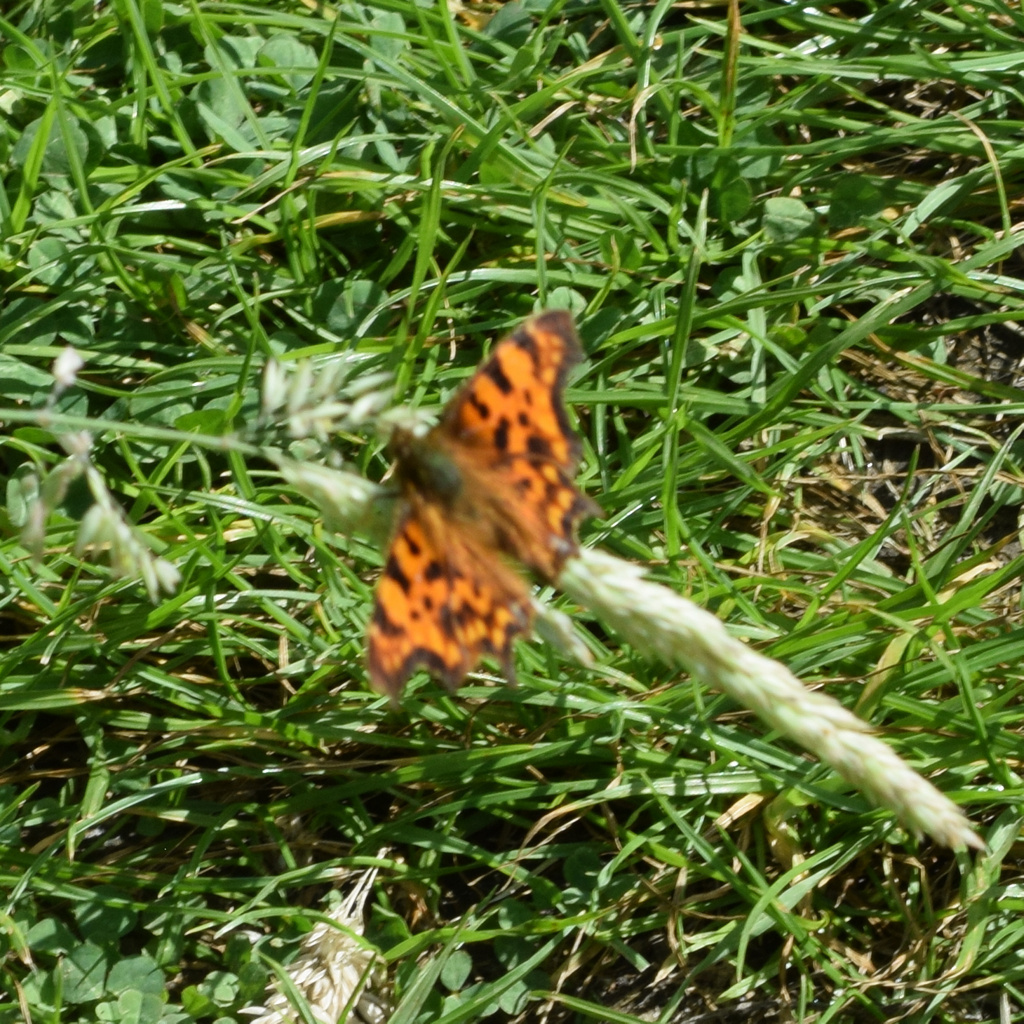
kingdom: Animalia
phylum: Arthropoda
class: Insecta
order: Lepidoptera
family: Nymphalidae
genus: Polygonia
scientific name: Polygonia c-album
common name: Comma
